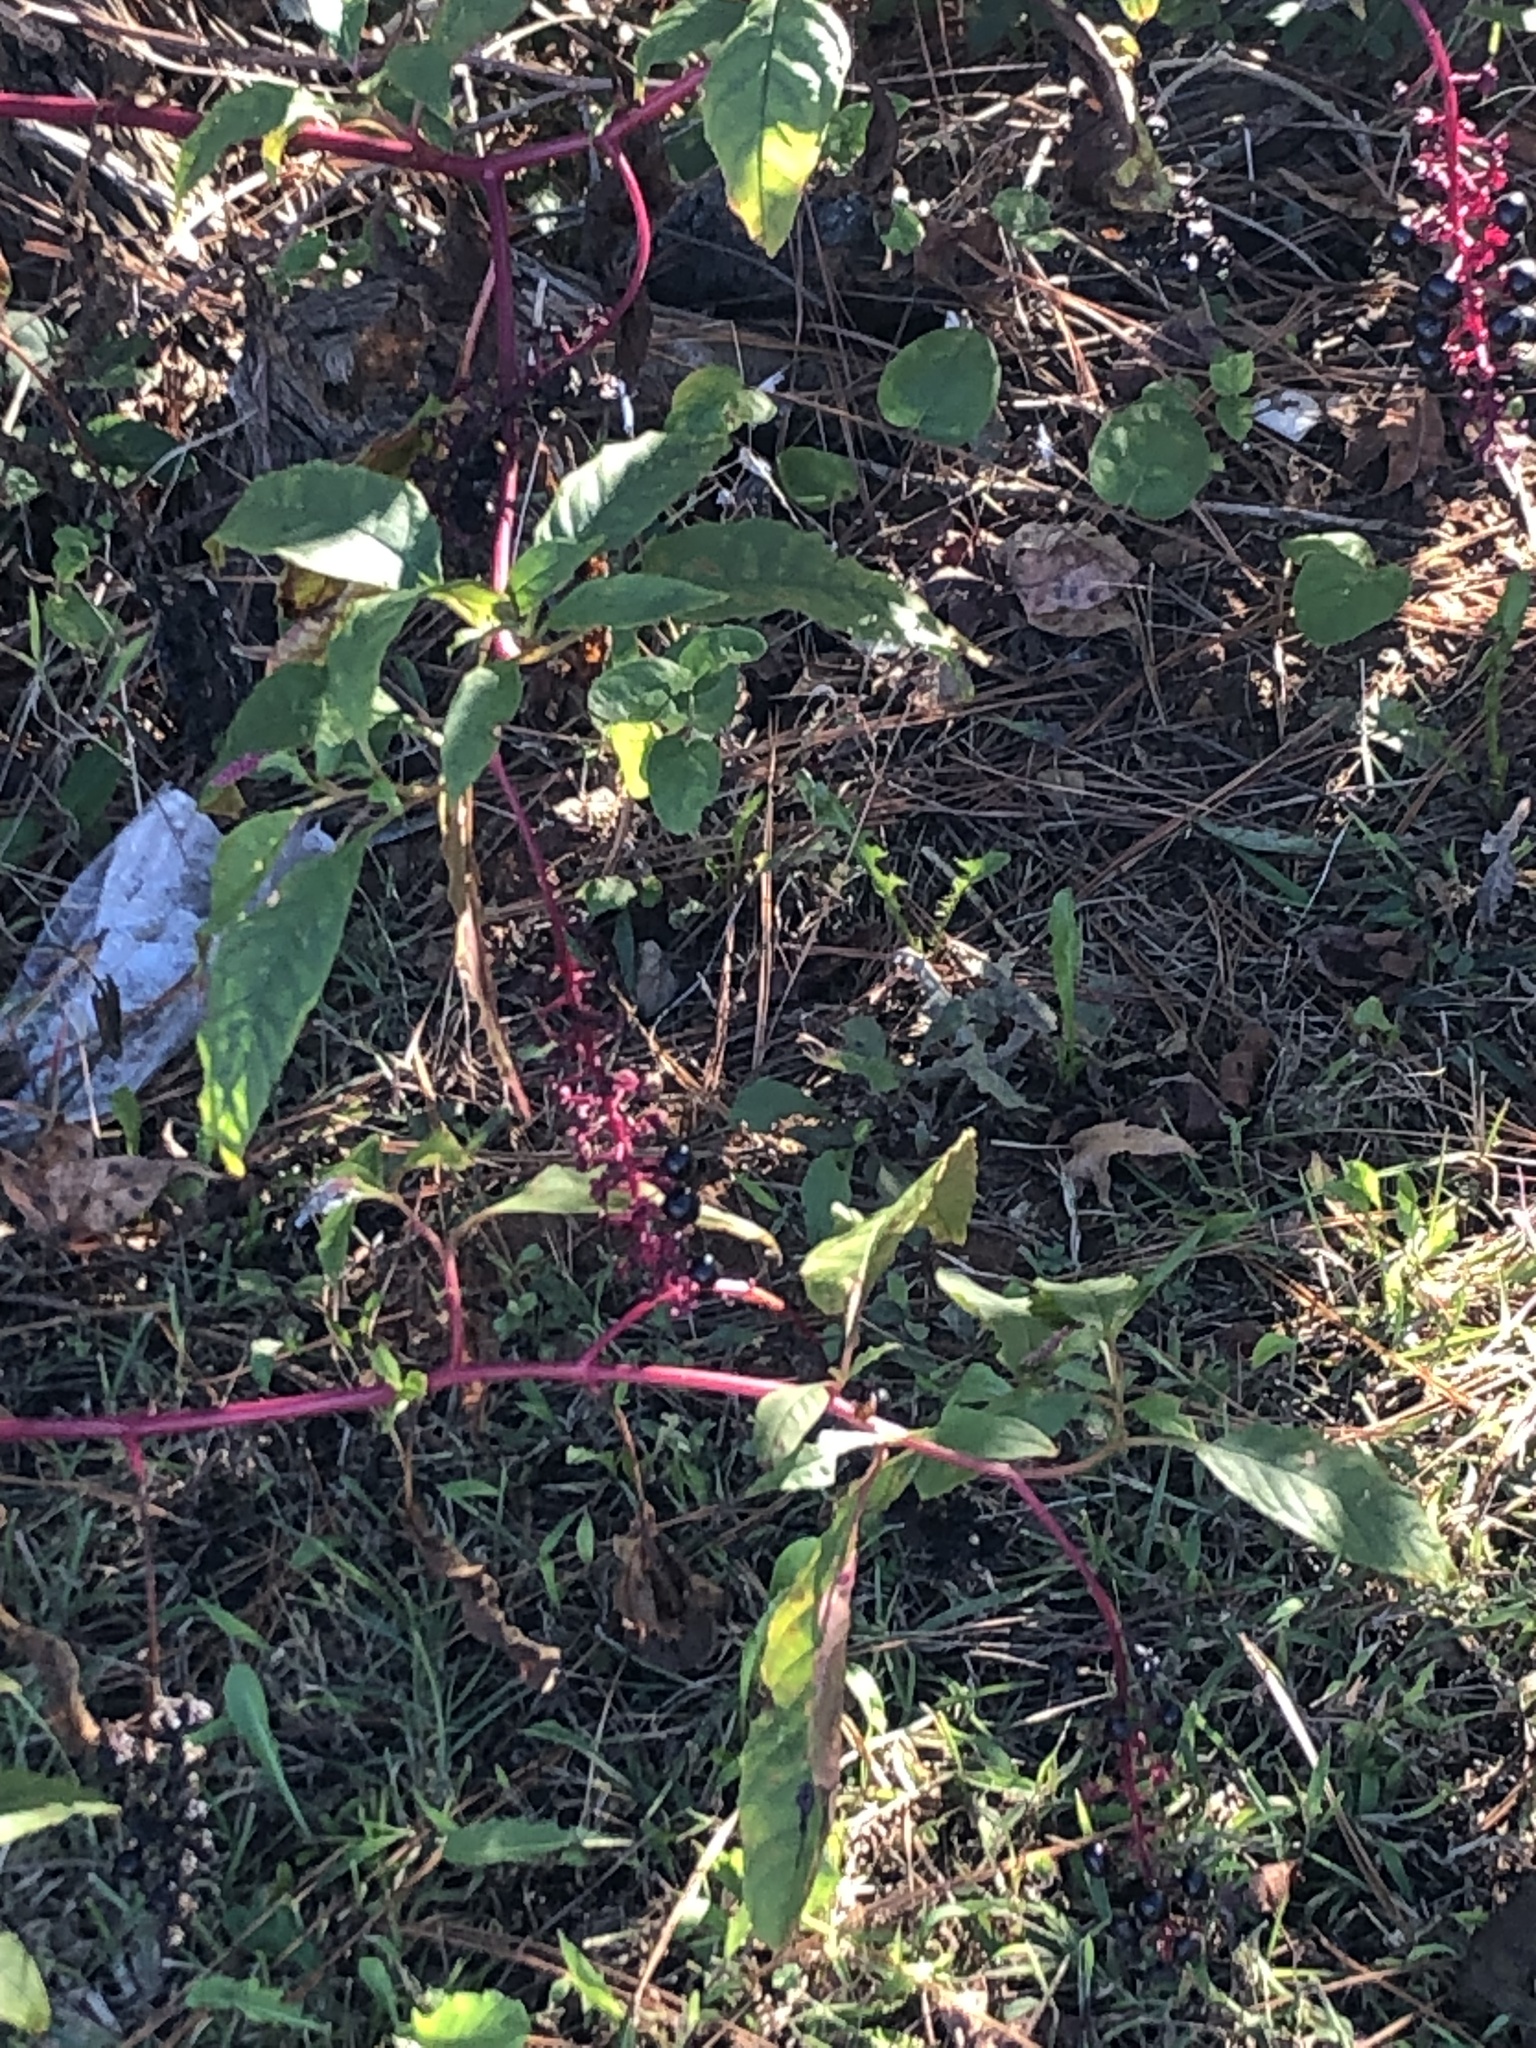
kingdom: Plantae
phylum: Tracheophyta
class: Magnoliopsida
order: Caryophyllales
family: Phytolaccaceae
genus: Phytolacca
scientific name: Phytolacca americana
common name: American pokeweed
